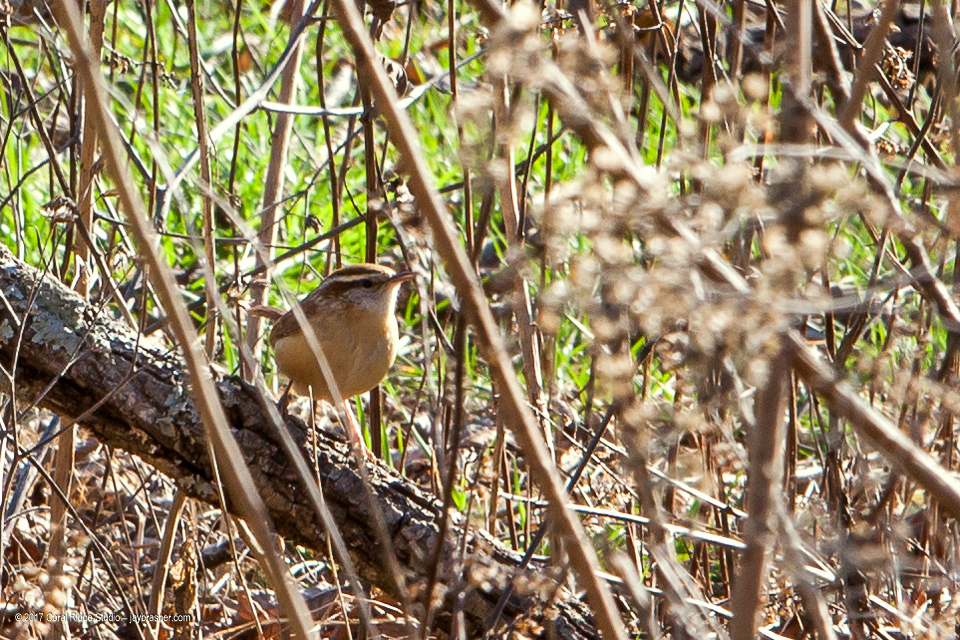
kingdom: Animalia
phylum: Chordata
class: Aves
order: Passeriformes
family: Troglodytidae
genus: Thryothorus
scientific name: Thryothorus ludovicianus
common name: Carolina wren
